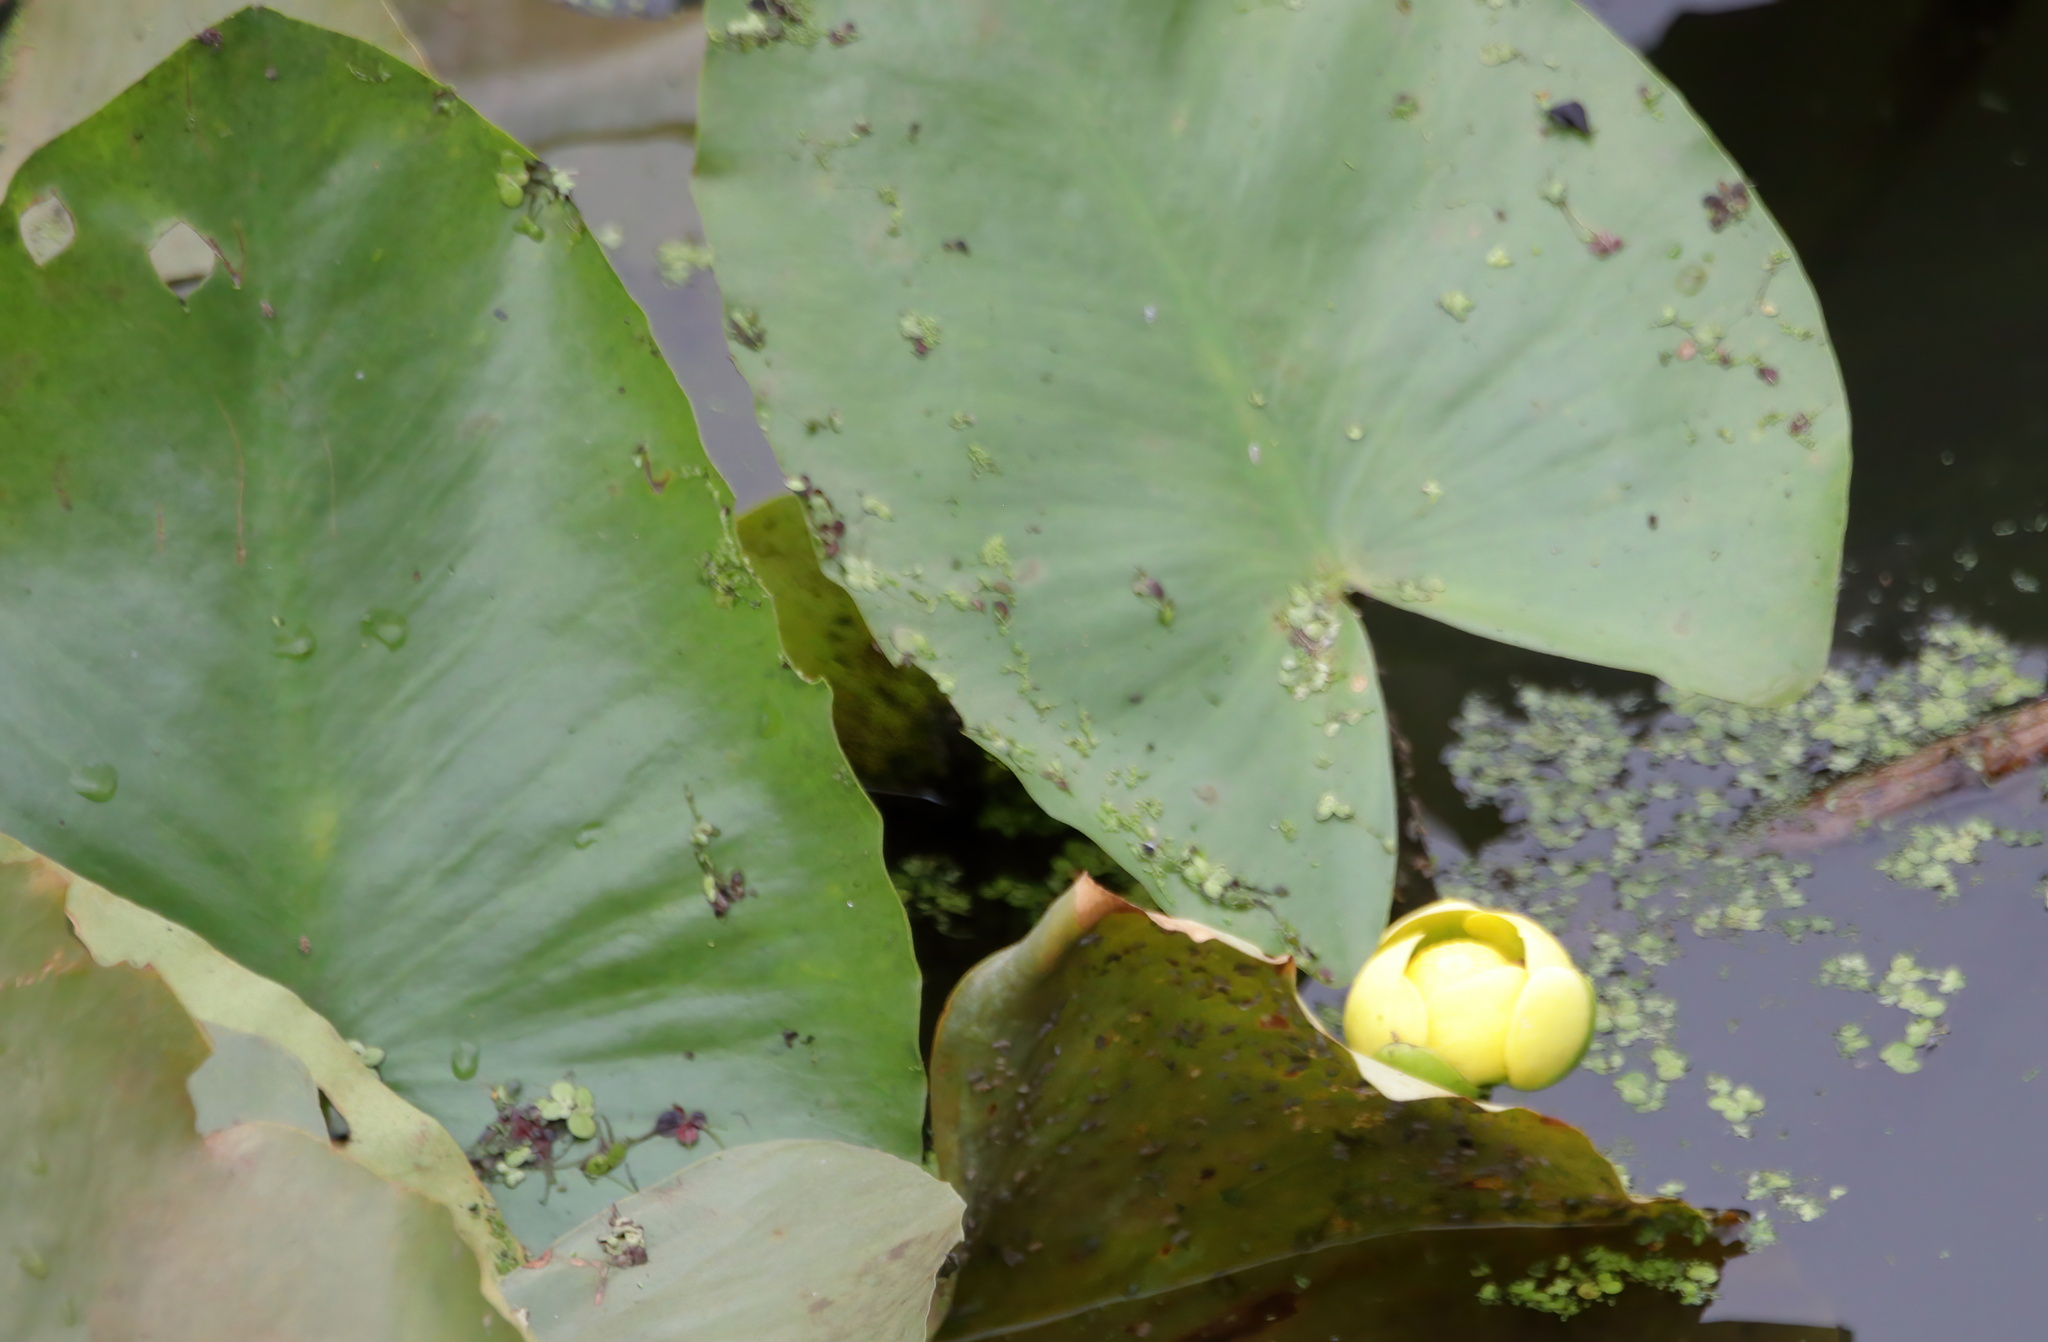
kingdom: Plantae
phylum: Tracheophyta
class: Magnoliopsida
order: Nymphaeales
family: Nymphaeaceae
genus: Nuphar
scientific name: Nuphar advena
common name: Spatter-dock
